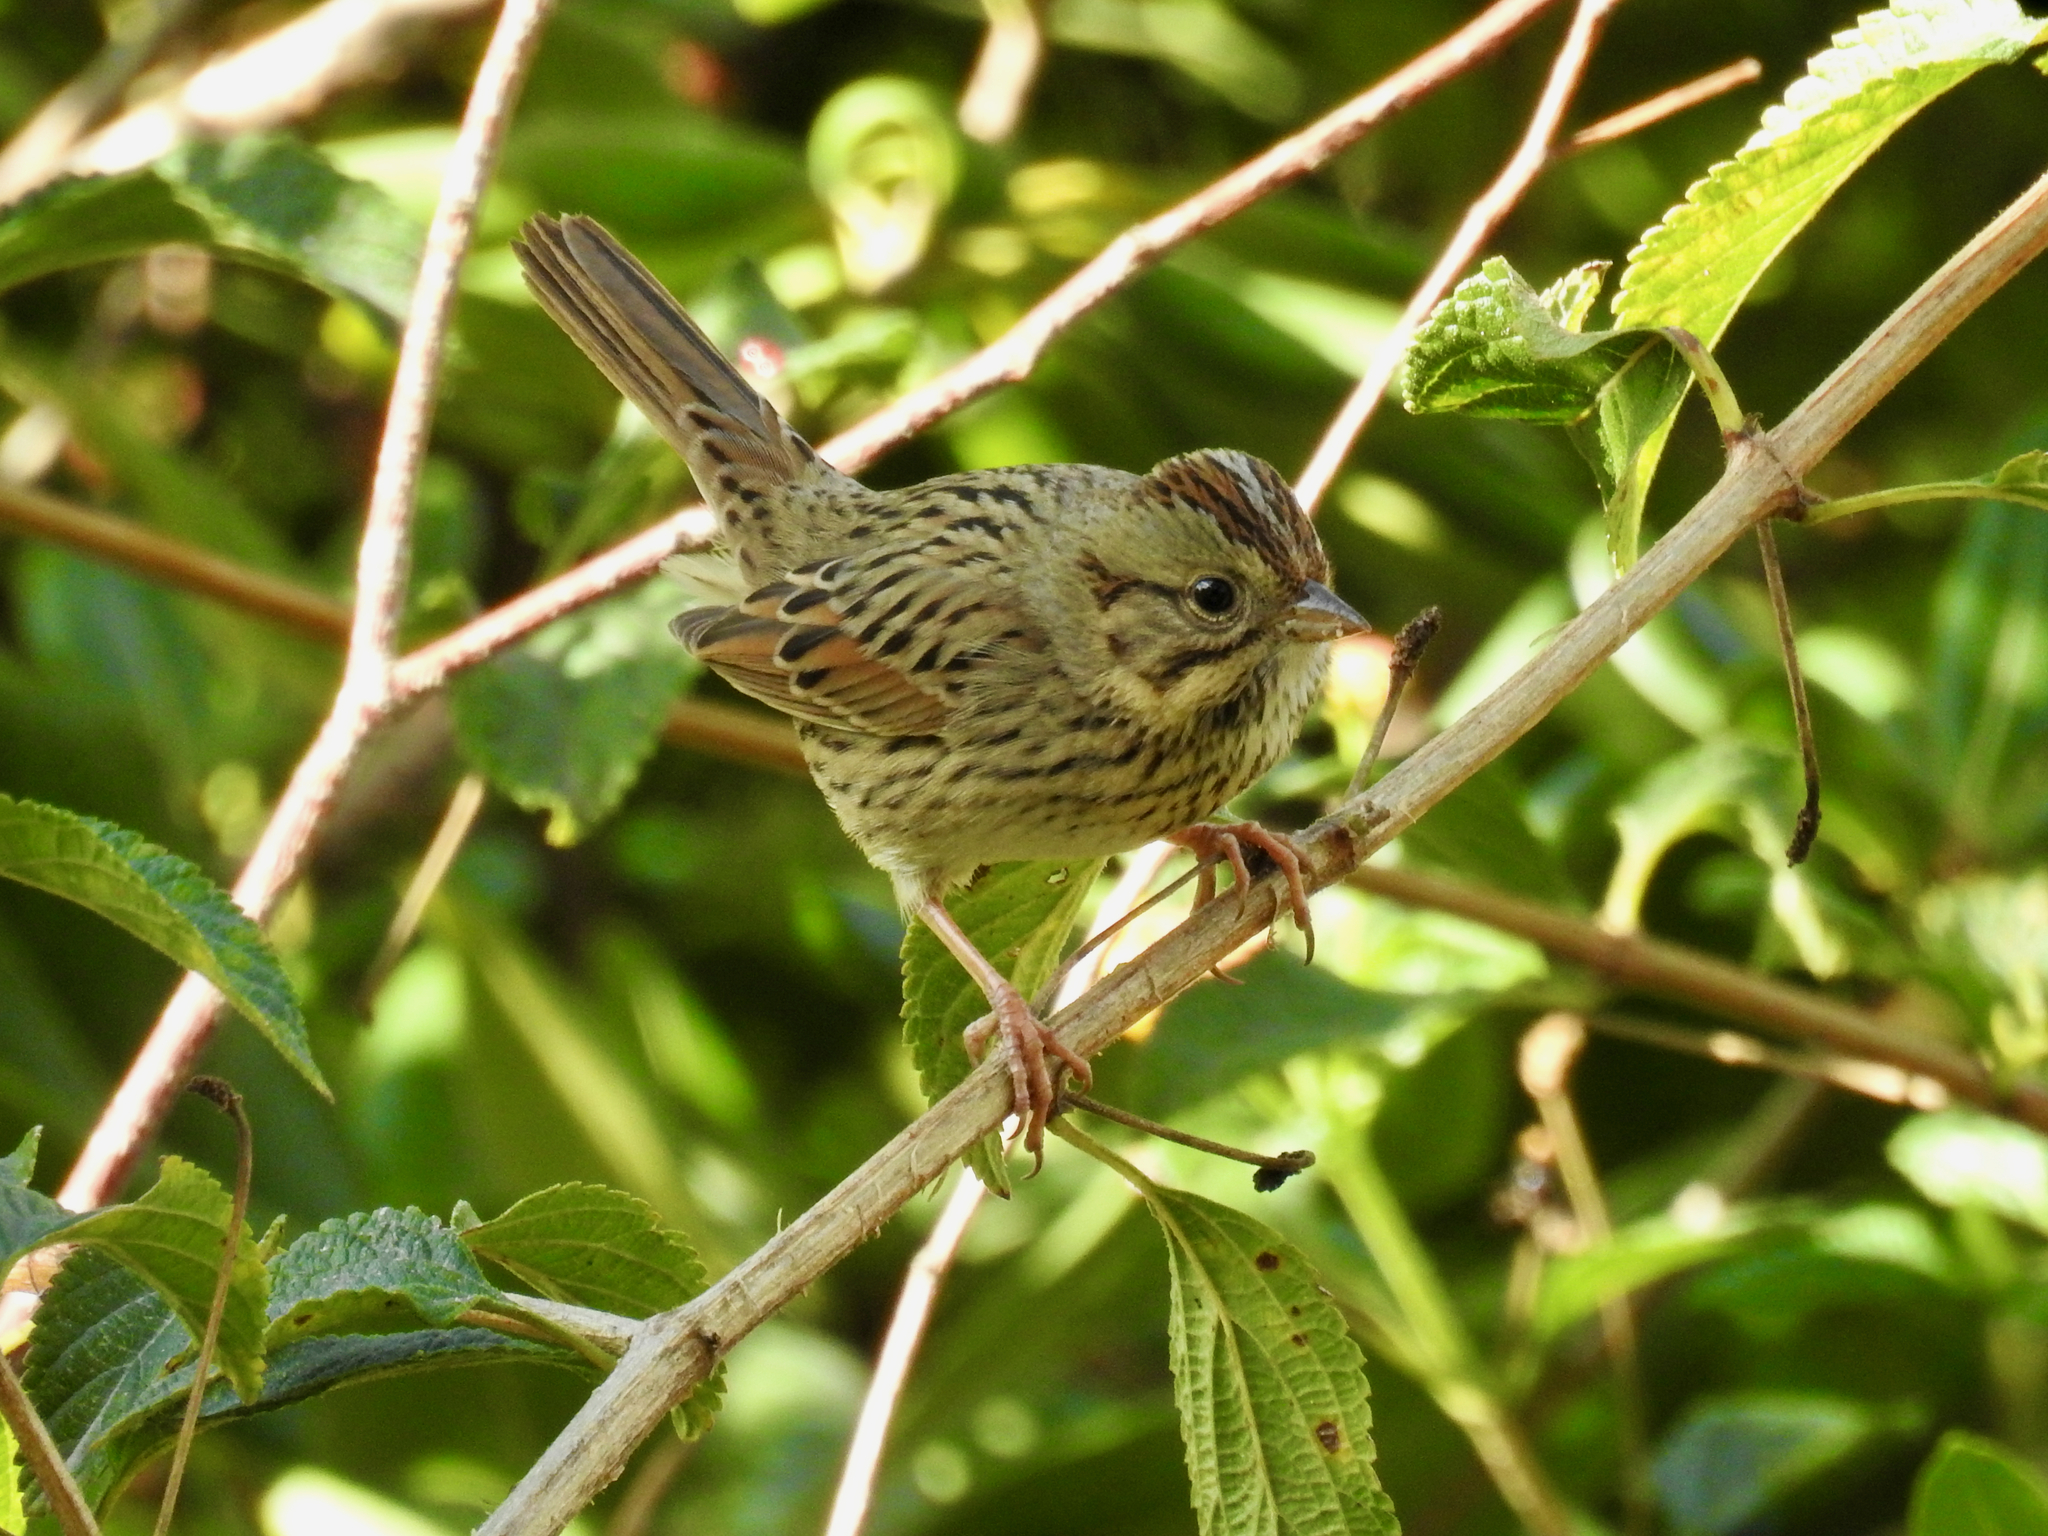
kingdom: Animalia
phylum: Chordata
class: Aves
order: Passeriformes
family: Passerellidae
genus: Melospiza
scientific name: Melospiza lincolnii
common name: Lincoln's sparrow
